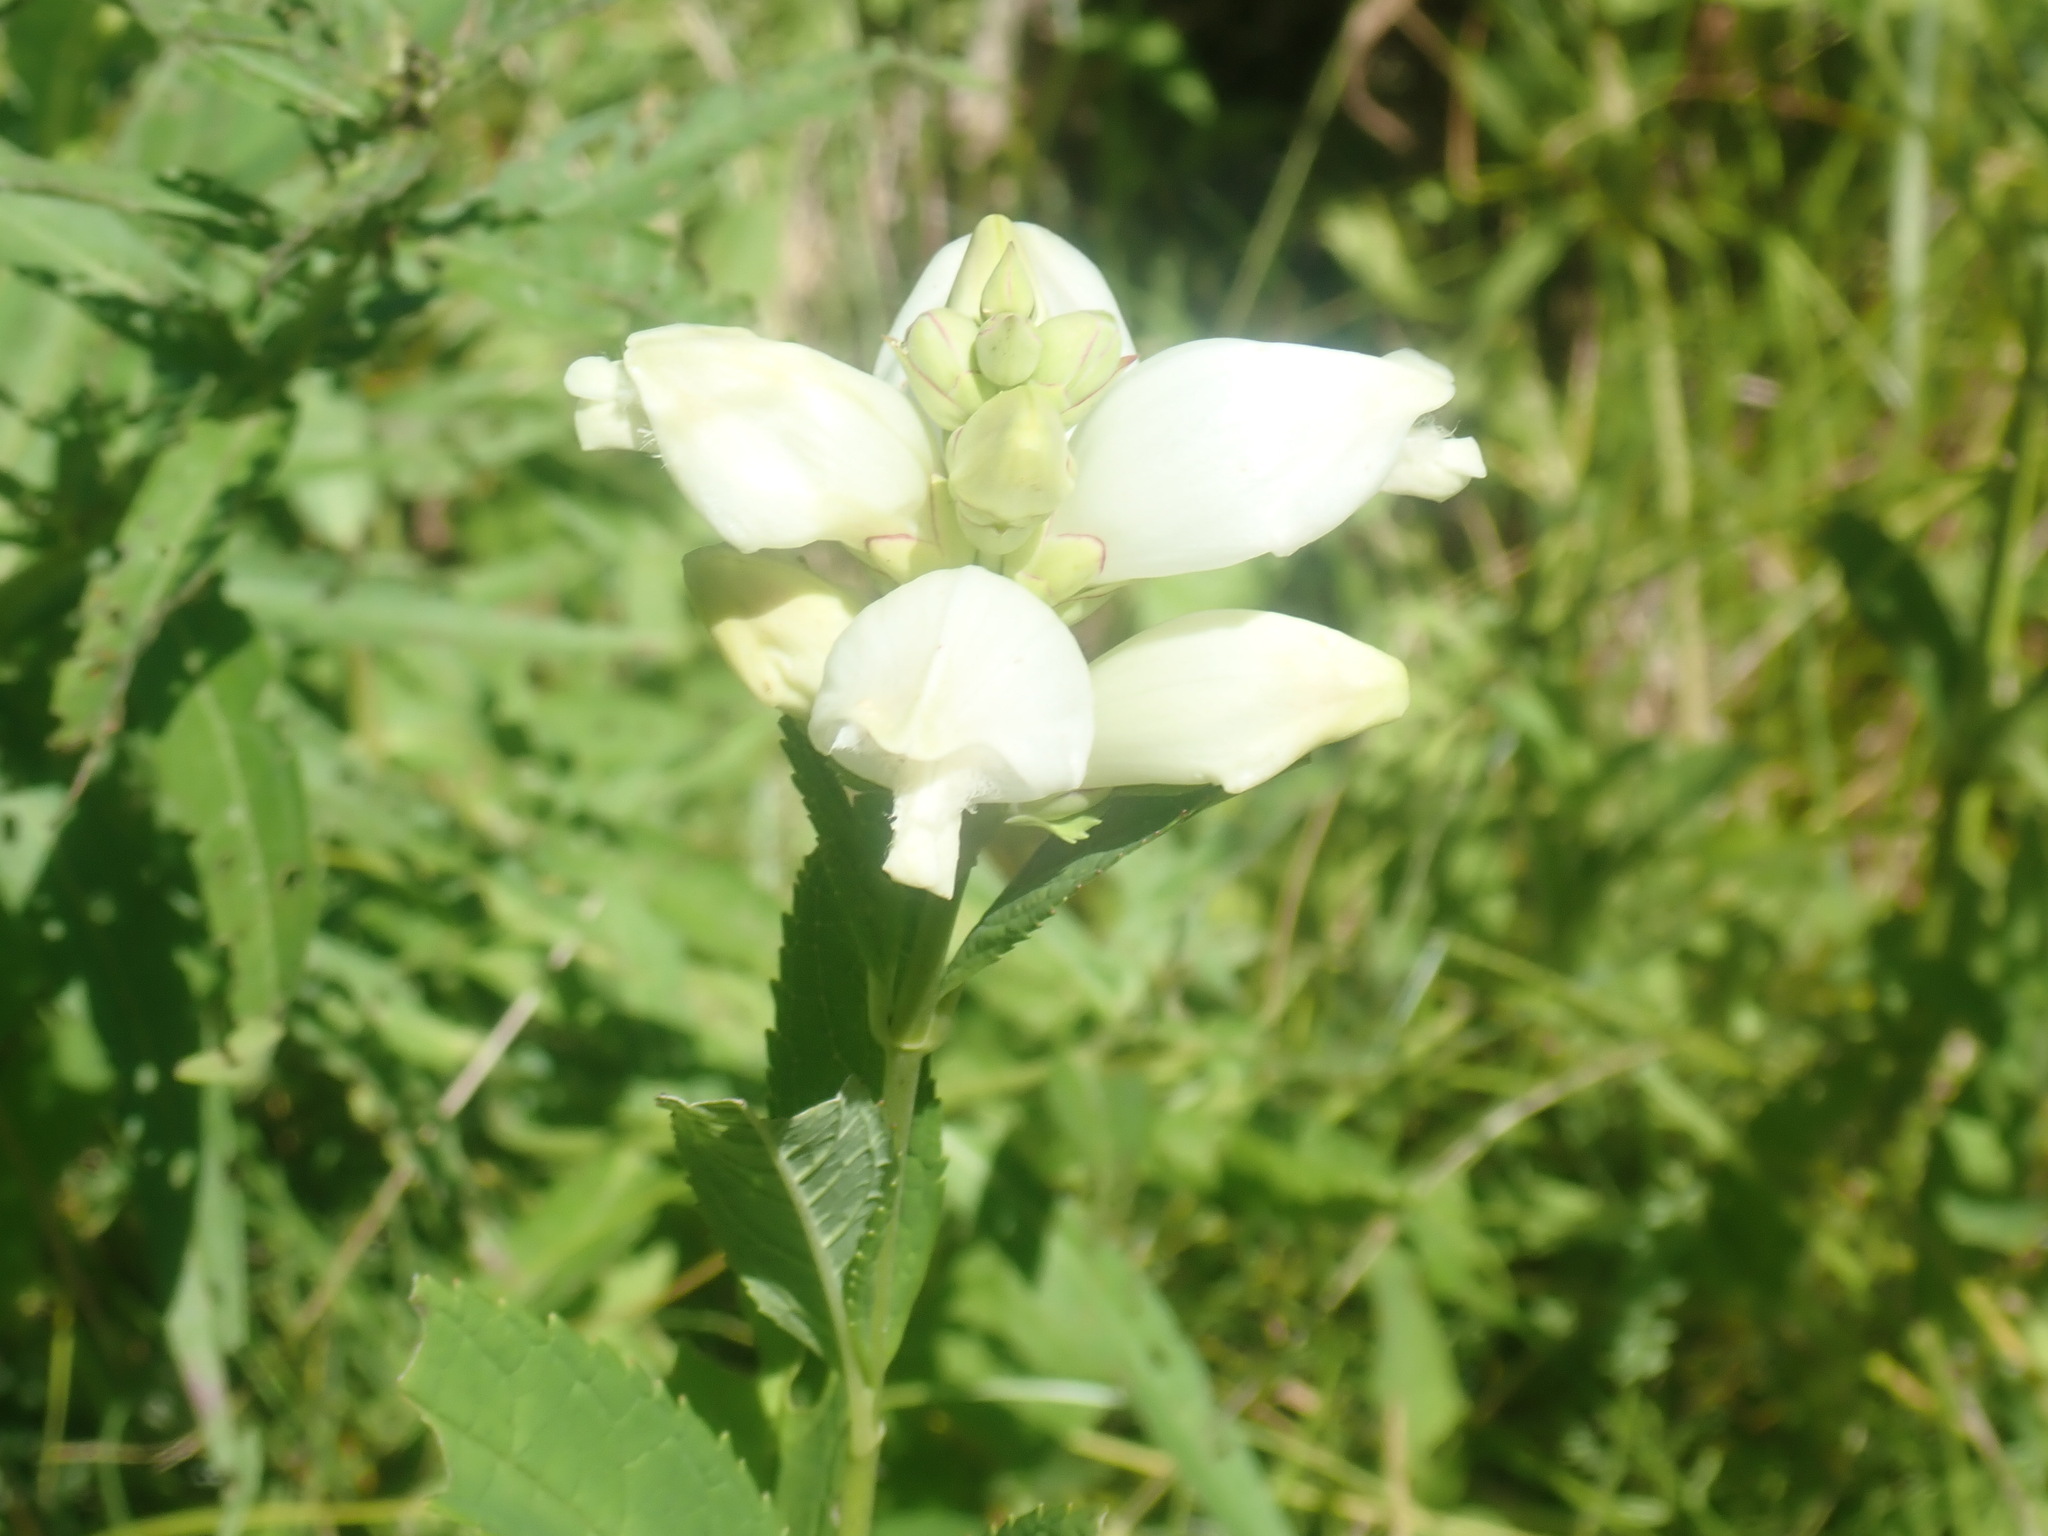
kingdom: Plantae
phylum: Tracheophyta
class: Magnoliopsida
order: Lamiales
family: Plantaginaceae
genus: Chelone
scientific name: Chelone glabra
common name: Snakehead
